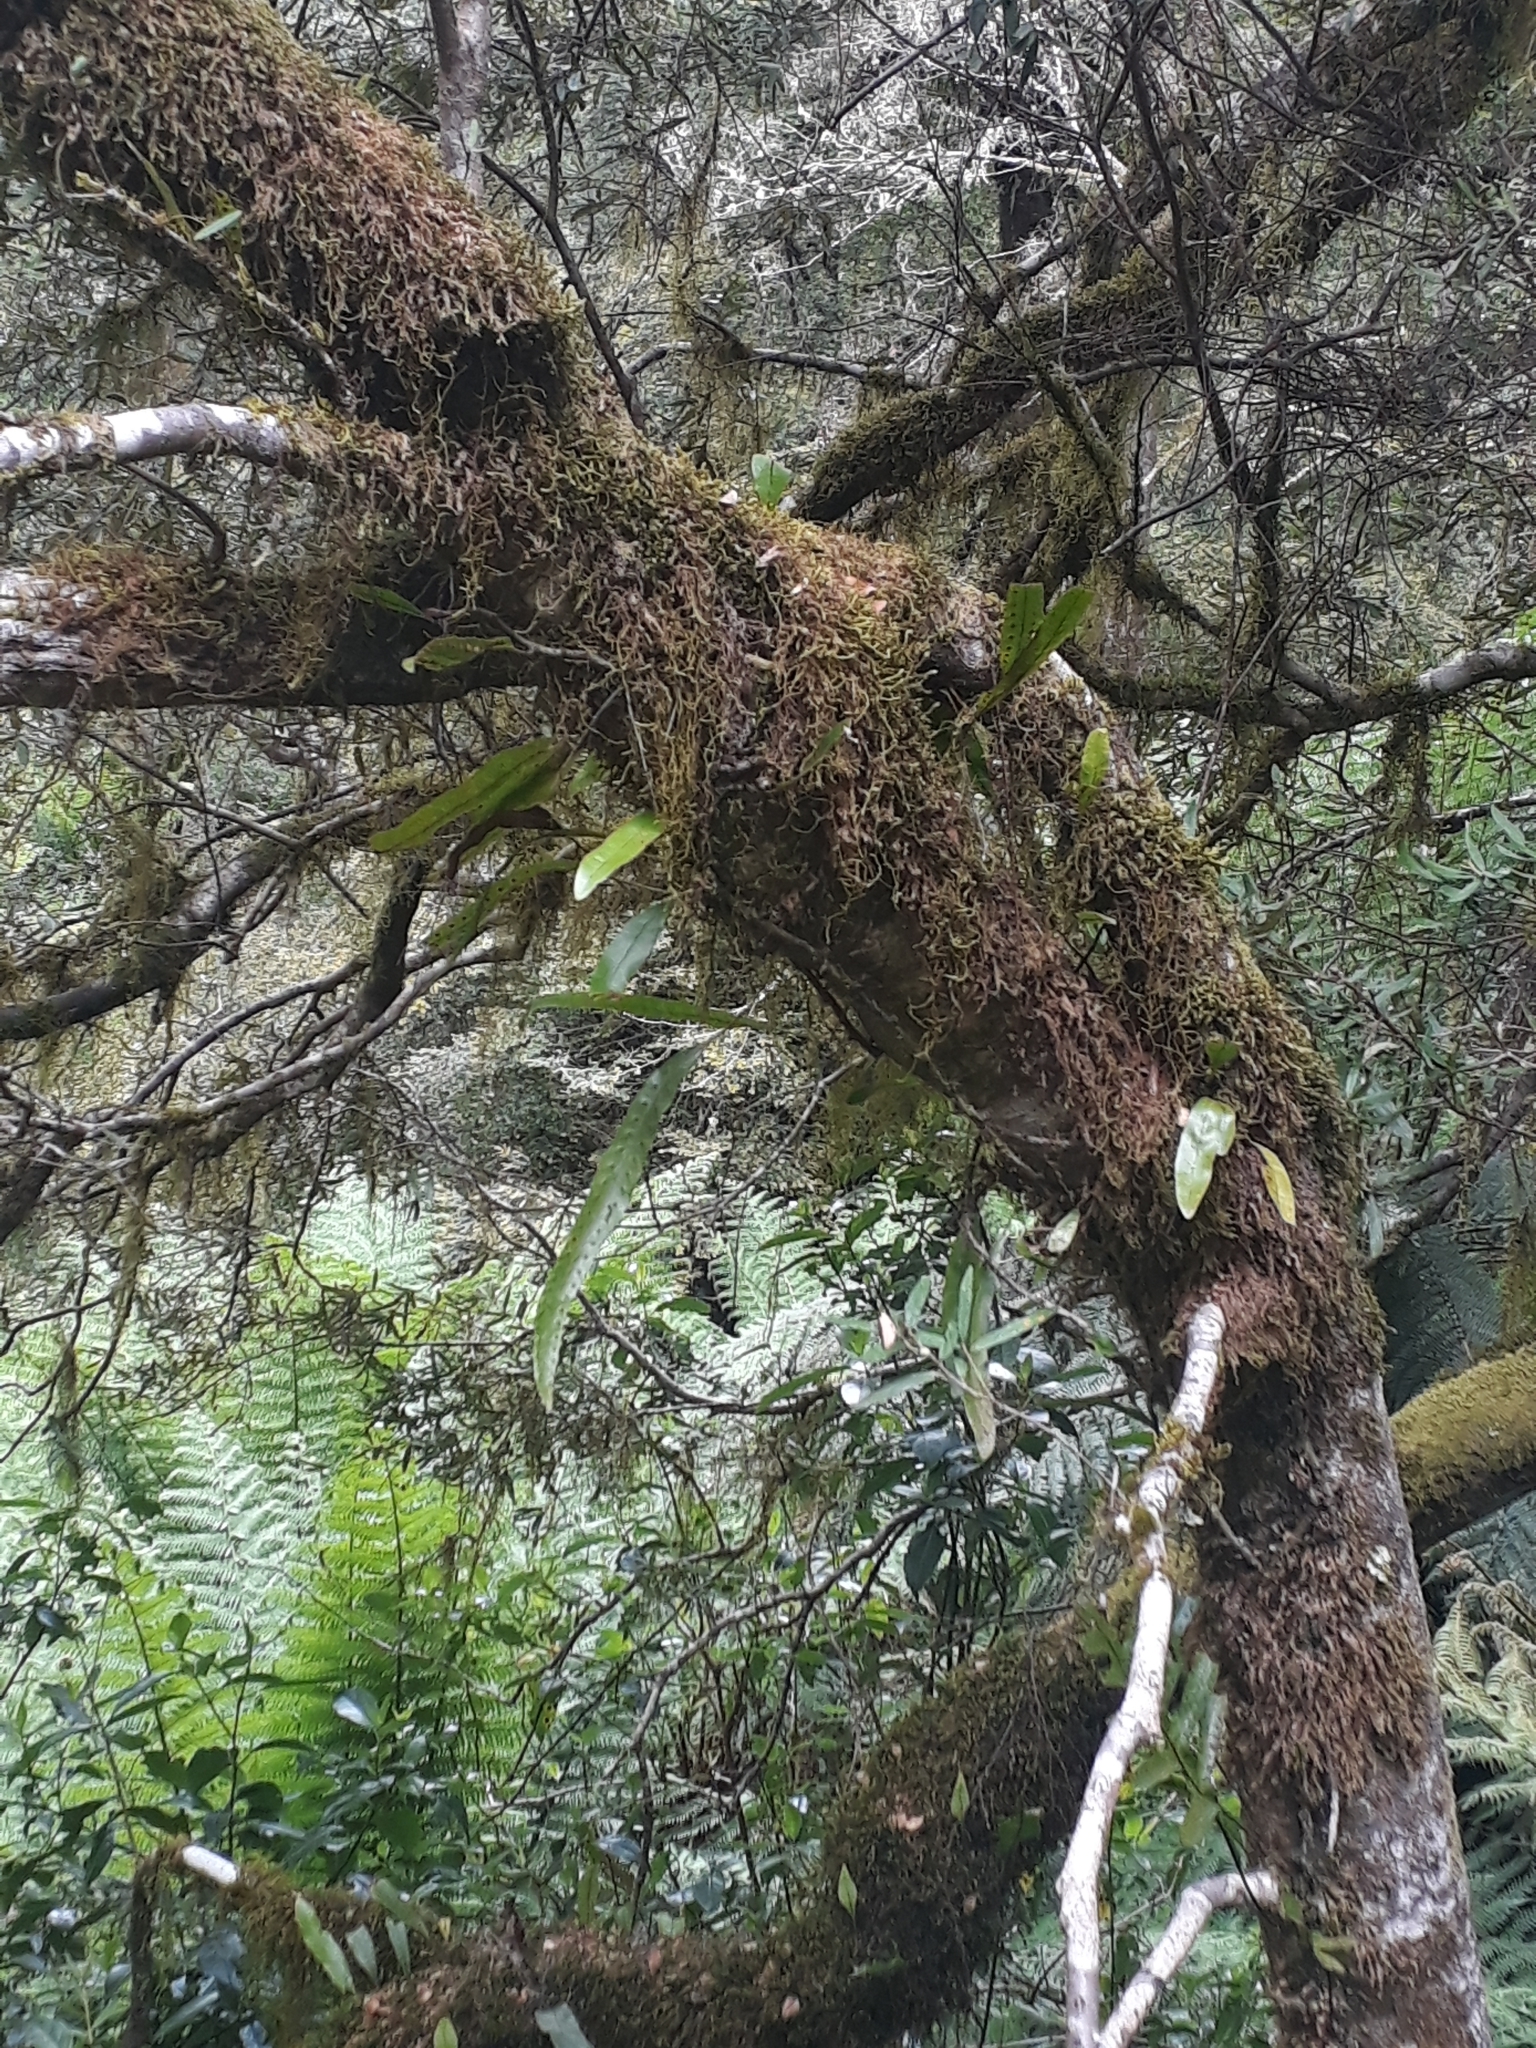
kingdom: Plantae
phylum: Tracheophyta
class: Polypodiopsida
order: Polypodiales
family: Polypodiaceae
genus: Lecanopteris
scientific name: Lecanopteris pustulata
